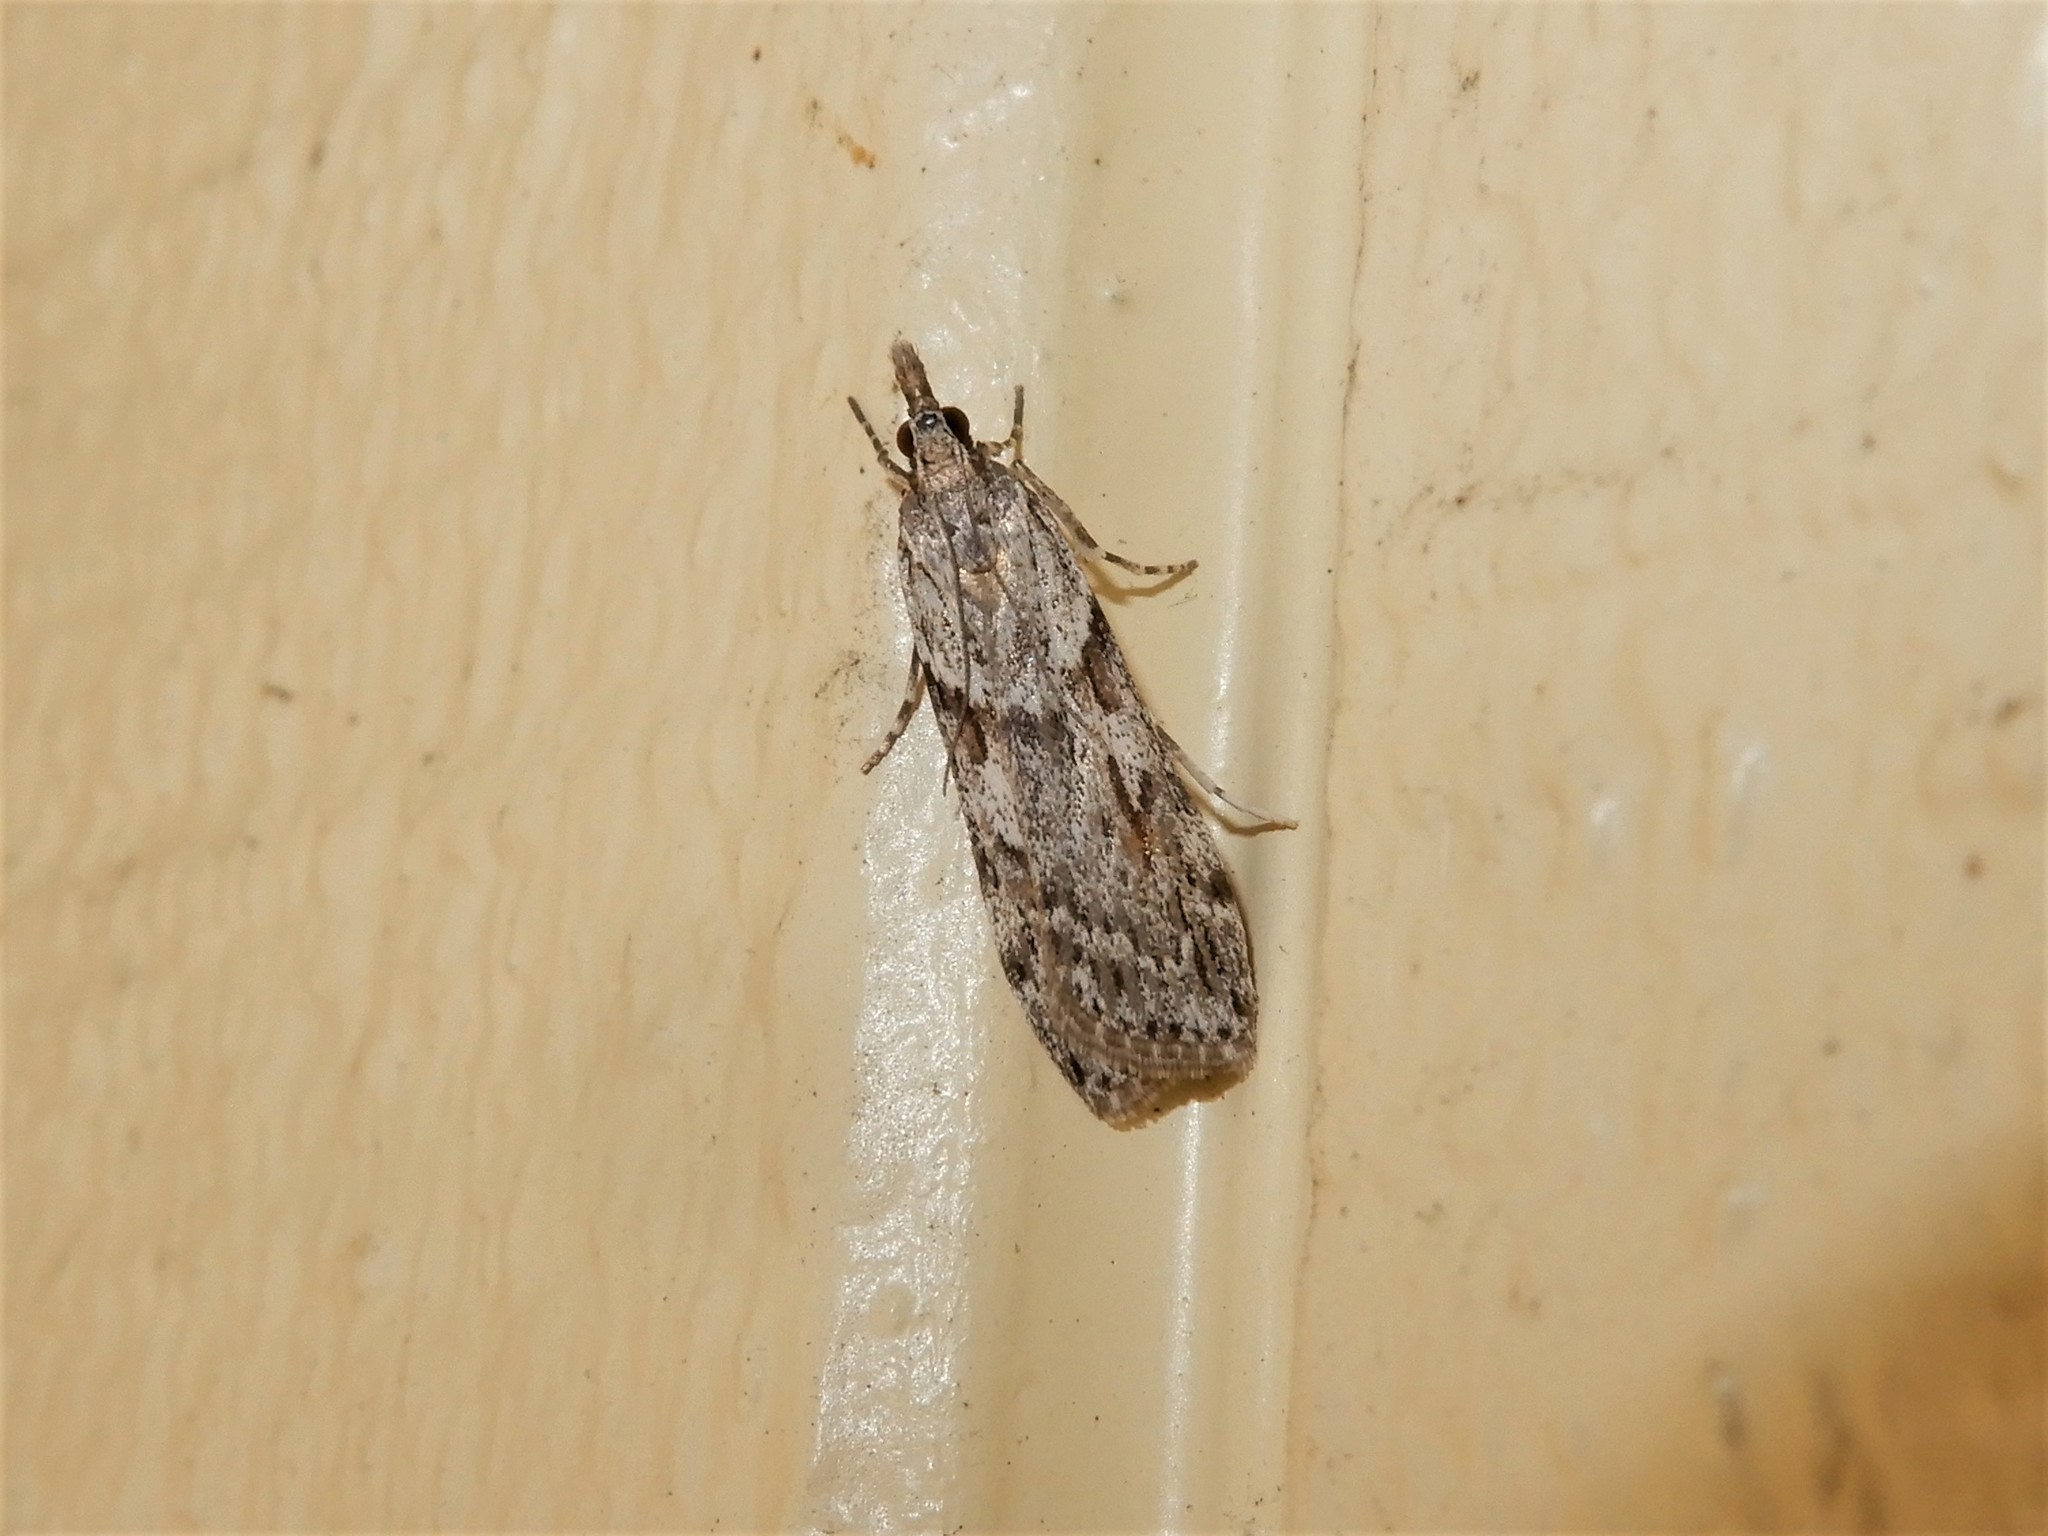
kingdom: Animalia
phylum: Arthropoda
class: Insecta
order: Lepidoptera
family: Crambidae
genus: Scoparia
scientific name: Scoparia halopis
